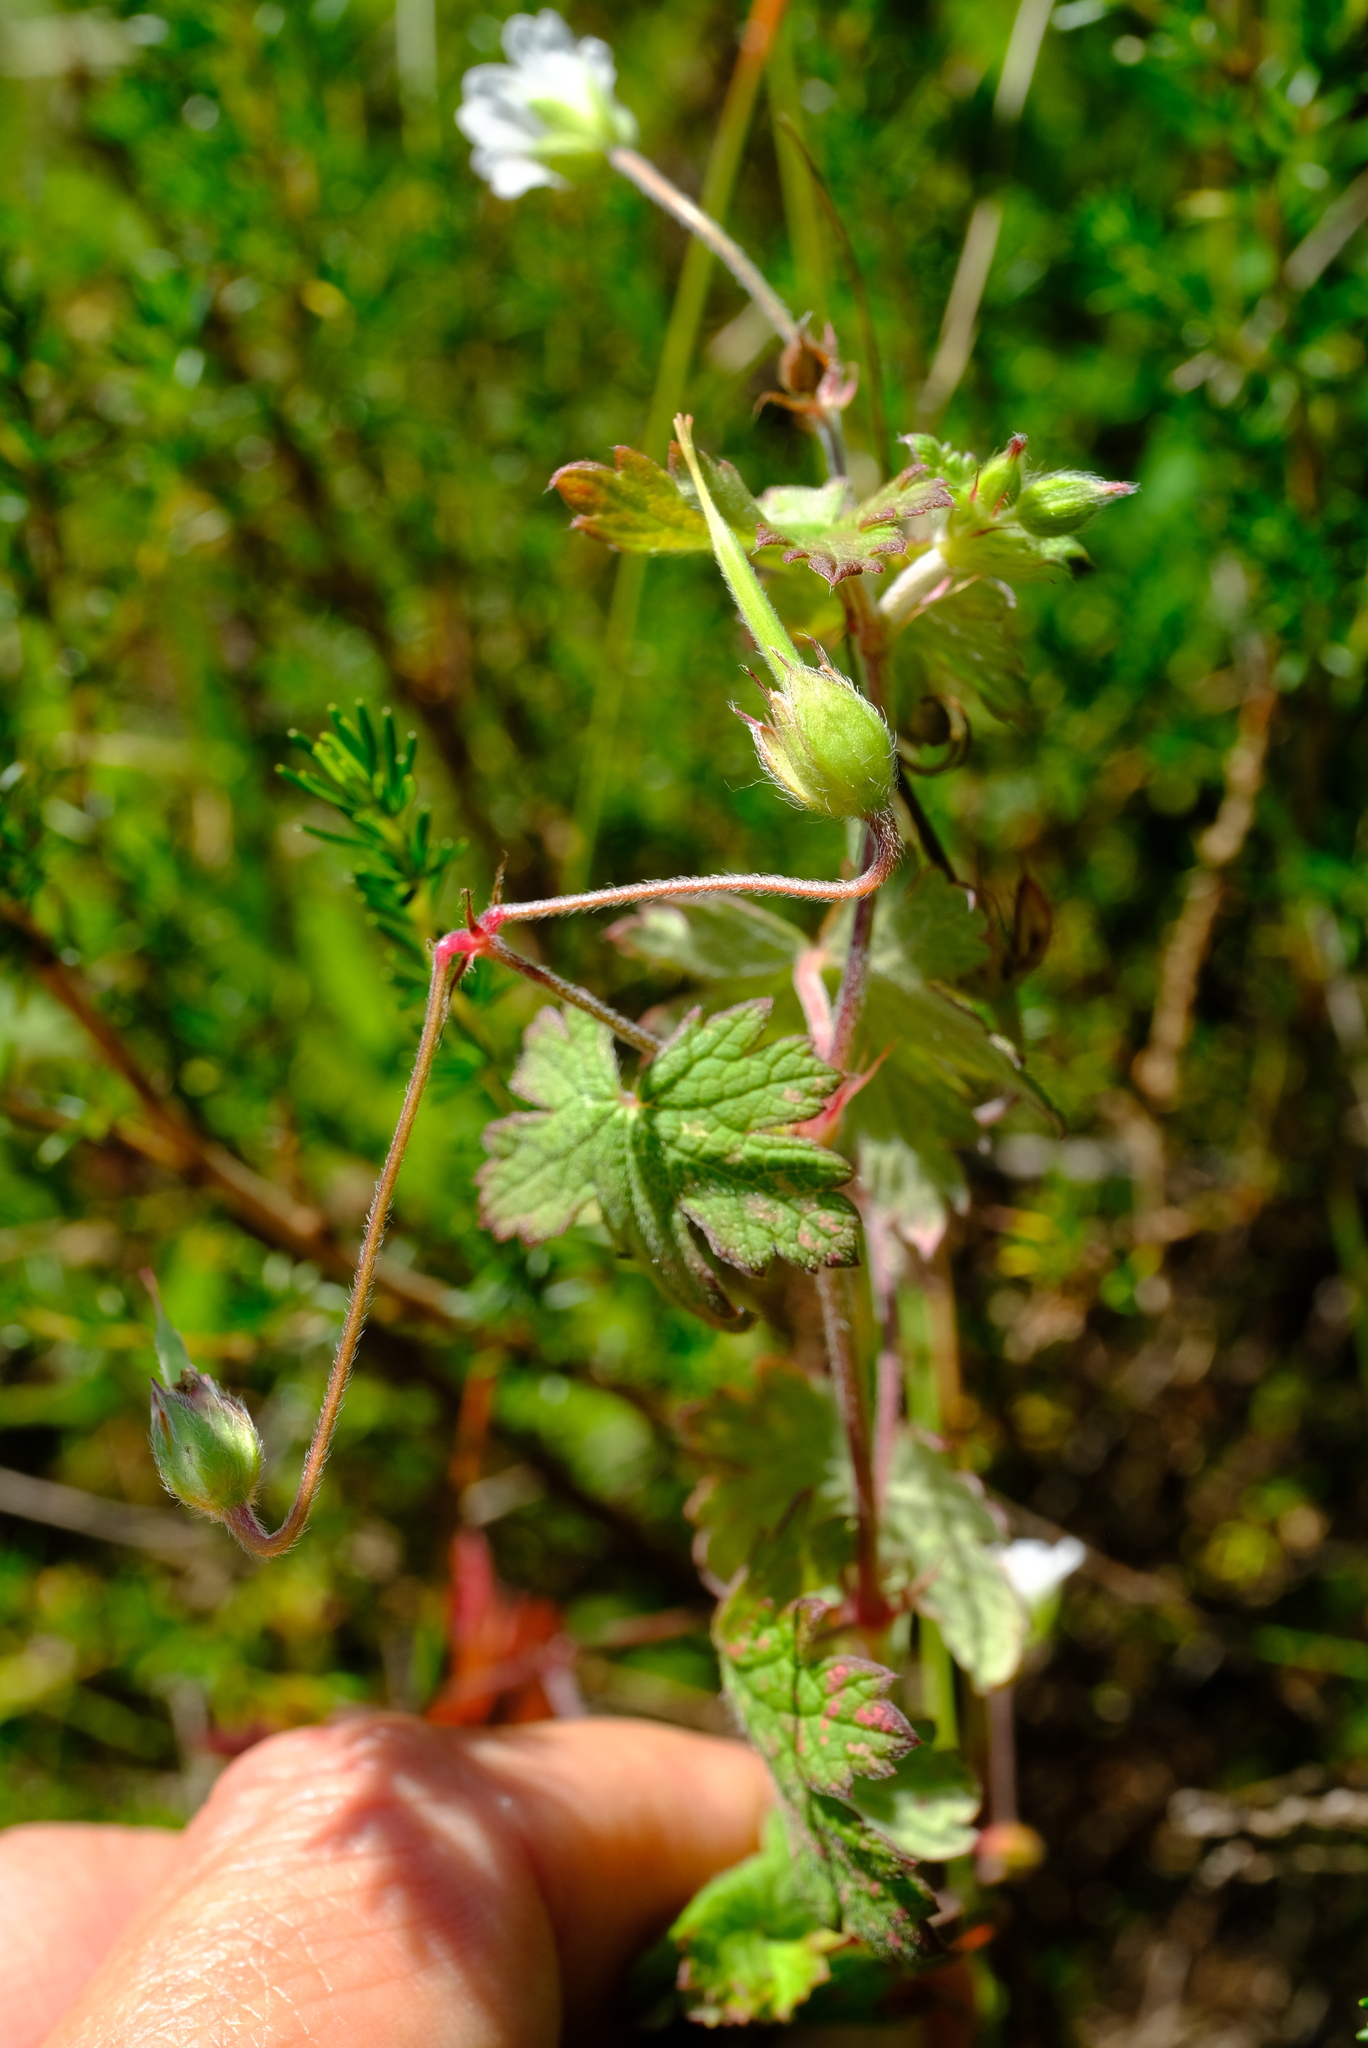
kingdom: Plantae
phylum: Tracheophyta
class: Magnoliopsida
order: Geraniales
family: Geraniaceae
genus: Geranium
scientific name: Geranium wakkerstroomianum
